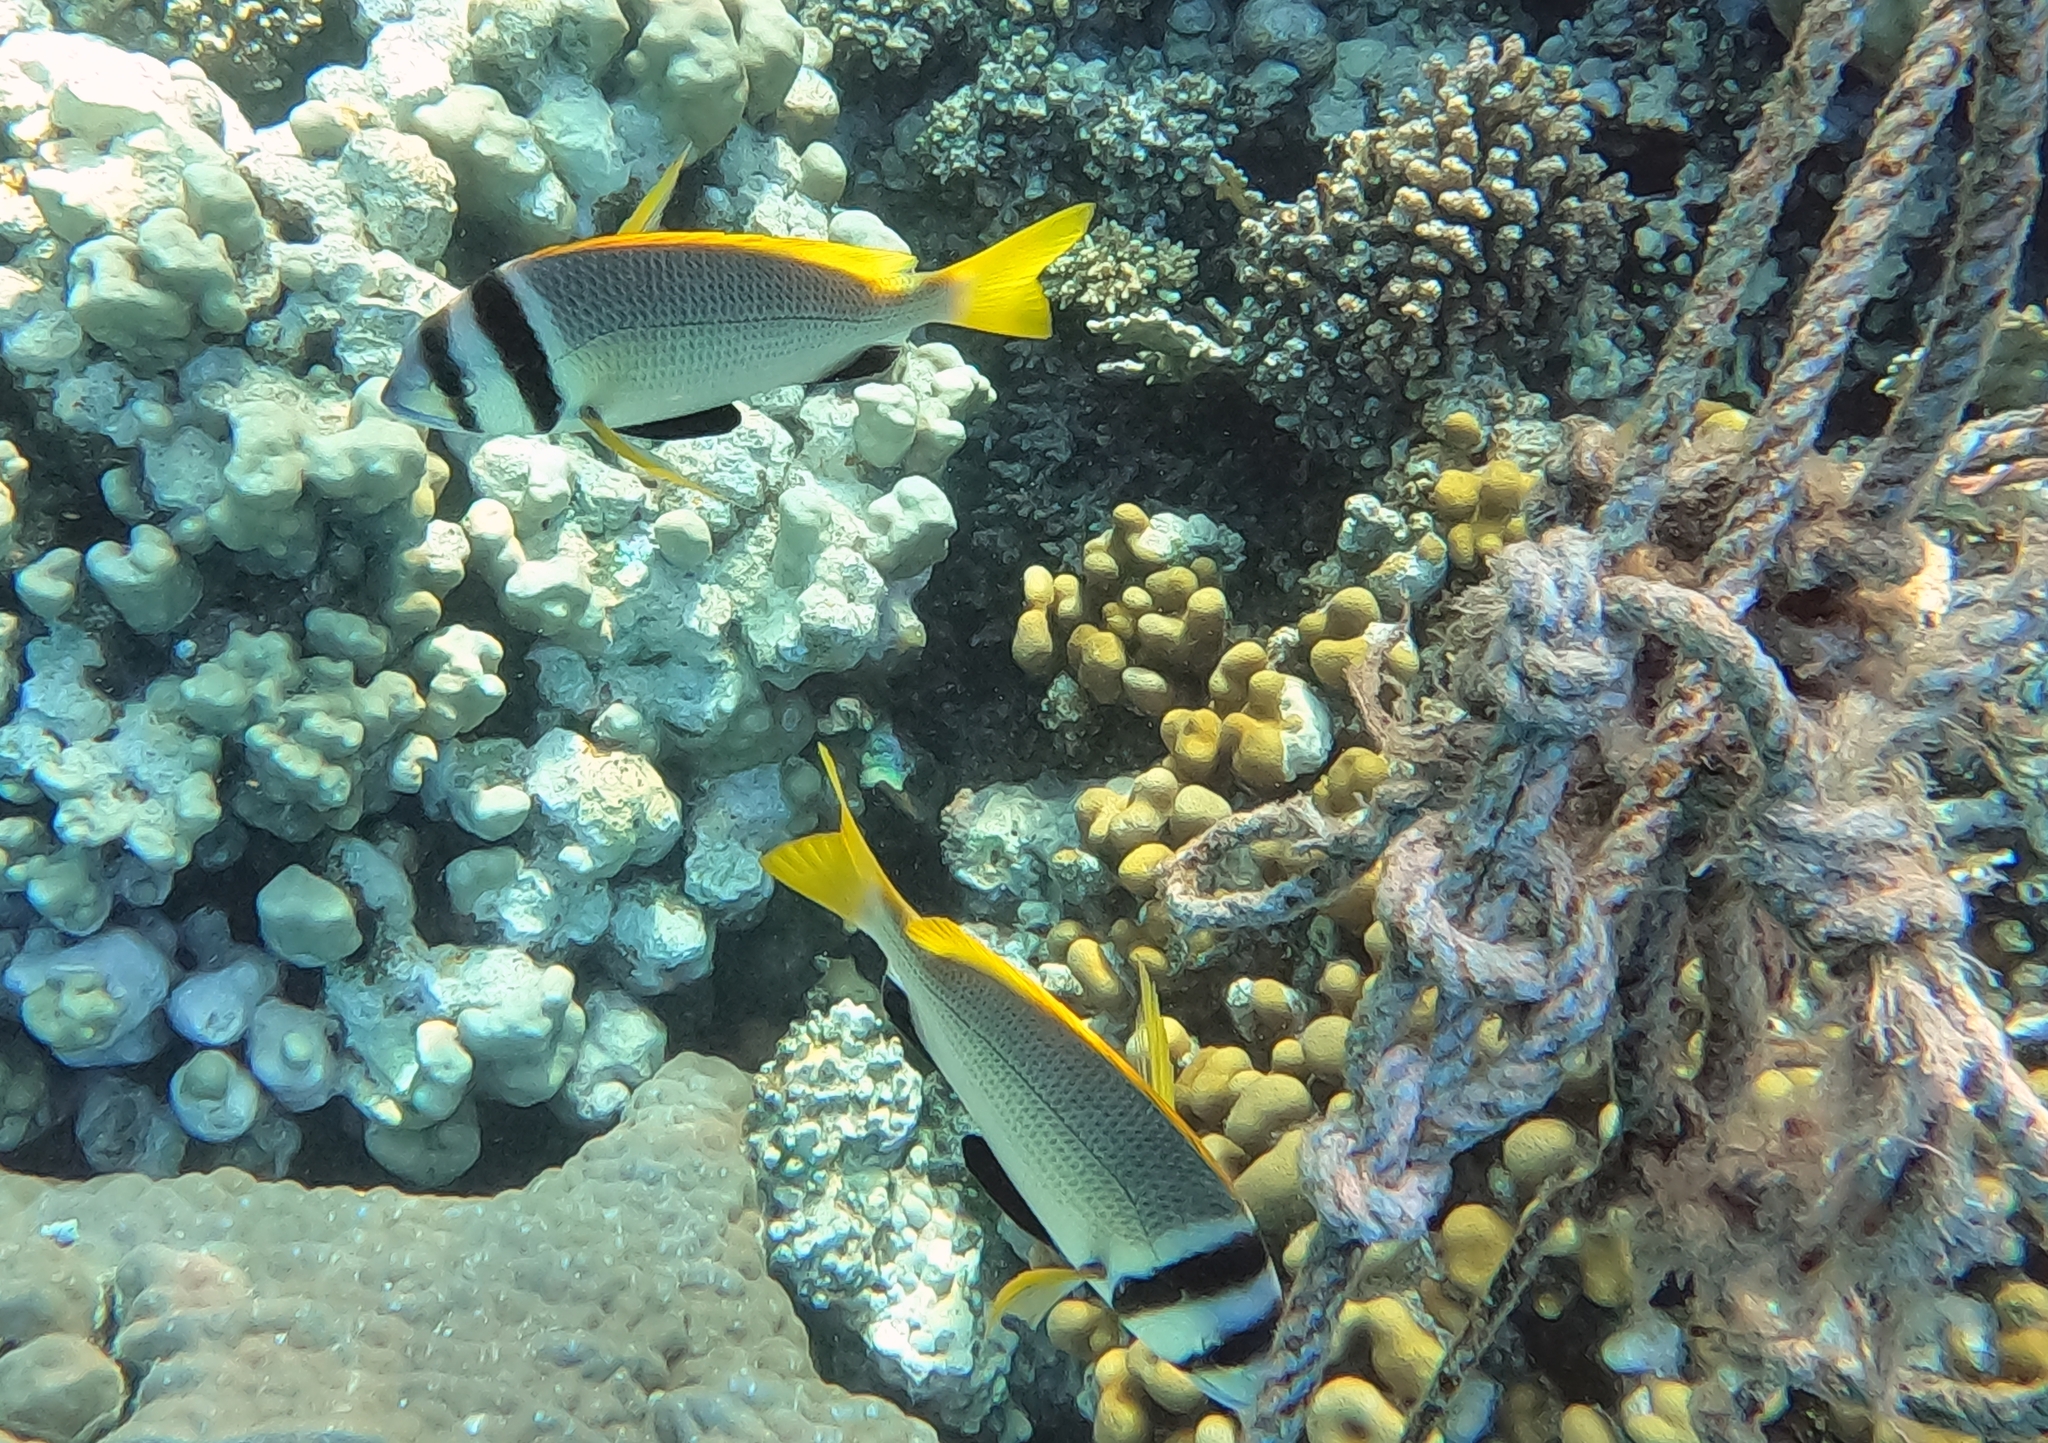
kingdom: Animalia
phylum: Chordata
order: Perciformes
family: Sparidae
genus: Acanthopagrus
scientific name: Acanthopagrus bifasciatus
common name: Twobar seabream
